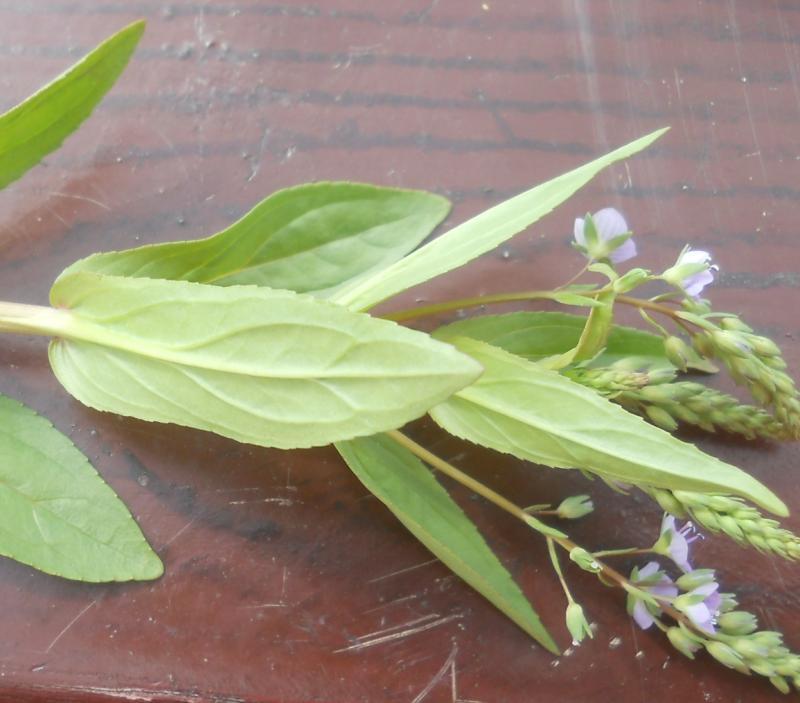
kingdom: Plantae
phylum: Tracheophyta
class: Magnoliopsida
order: Lamiales
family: Plantaginaceae
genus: Veronica
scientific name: Veronica anagallis-aquatica
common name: Water speedwell
